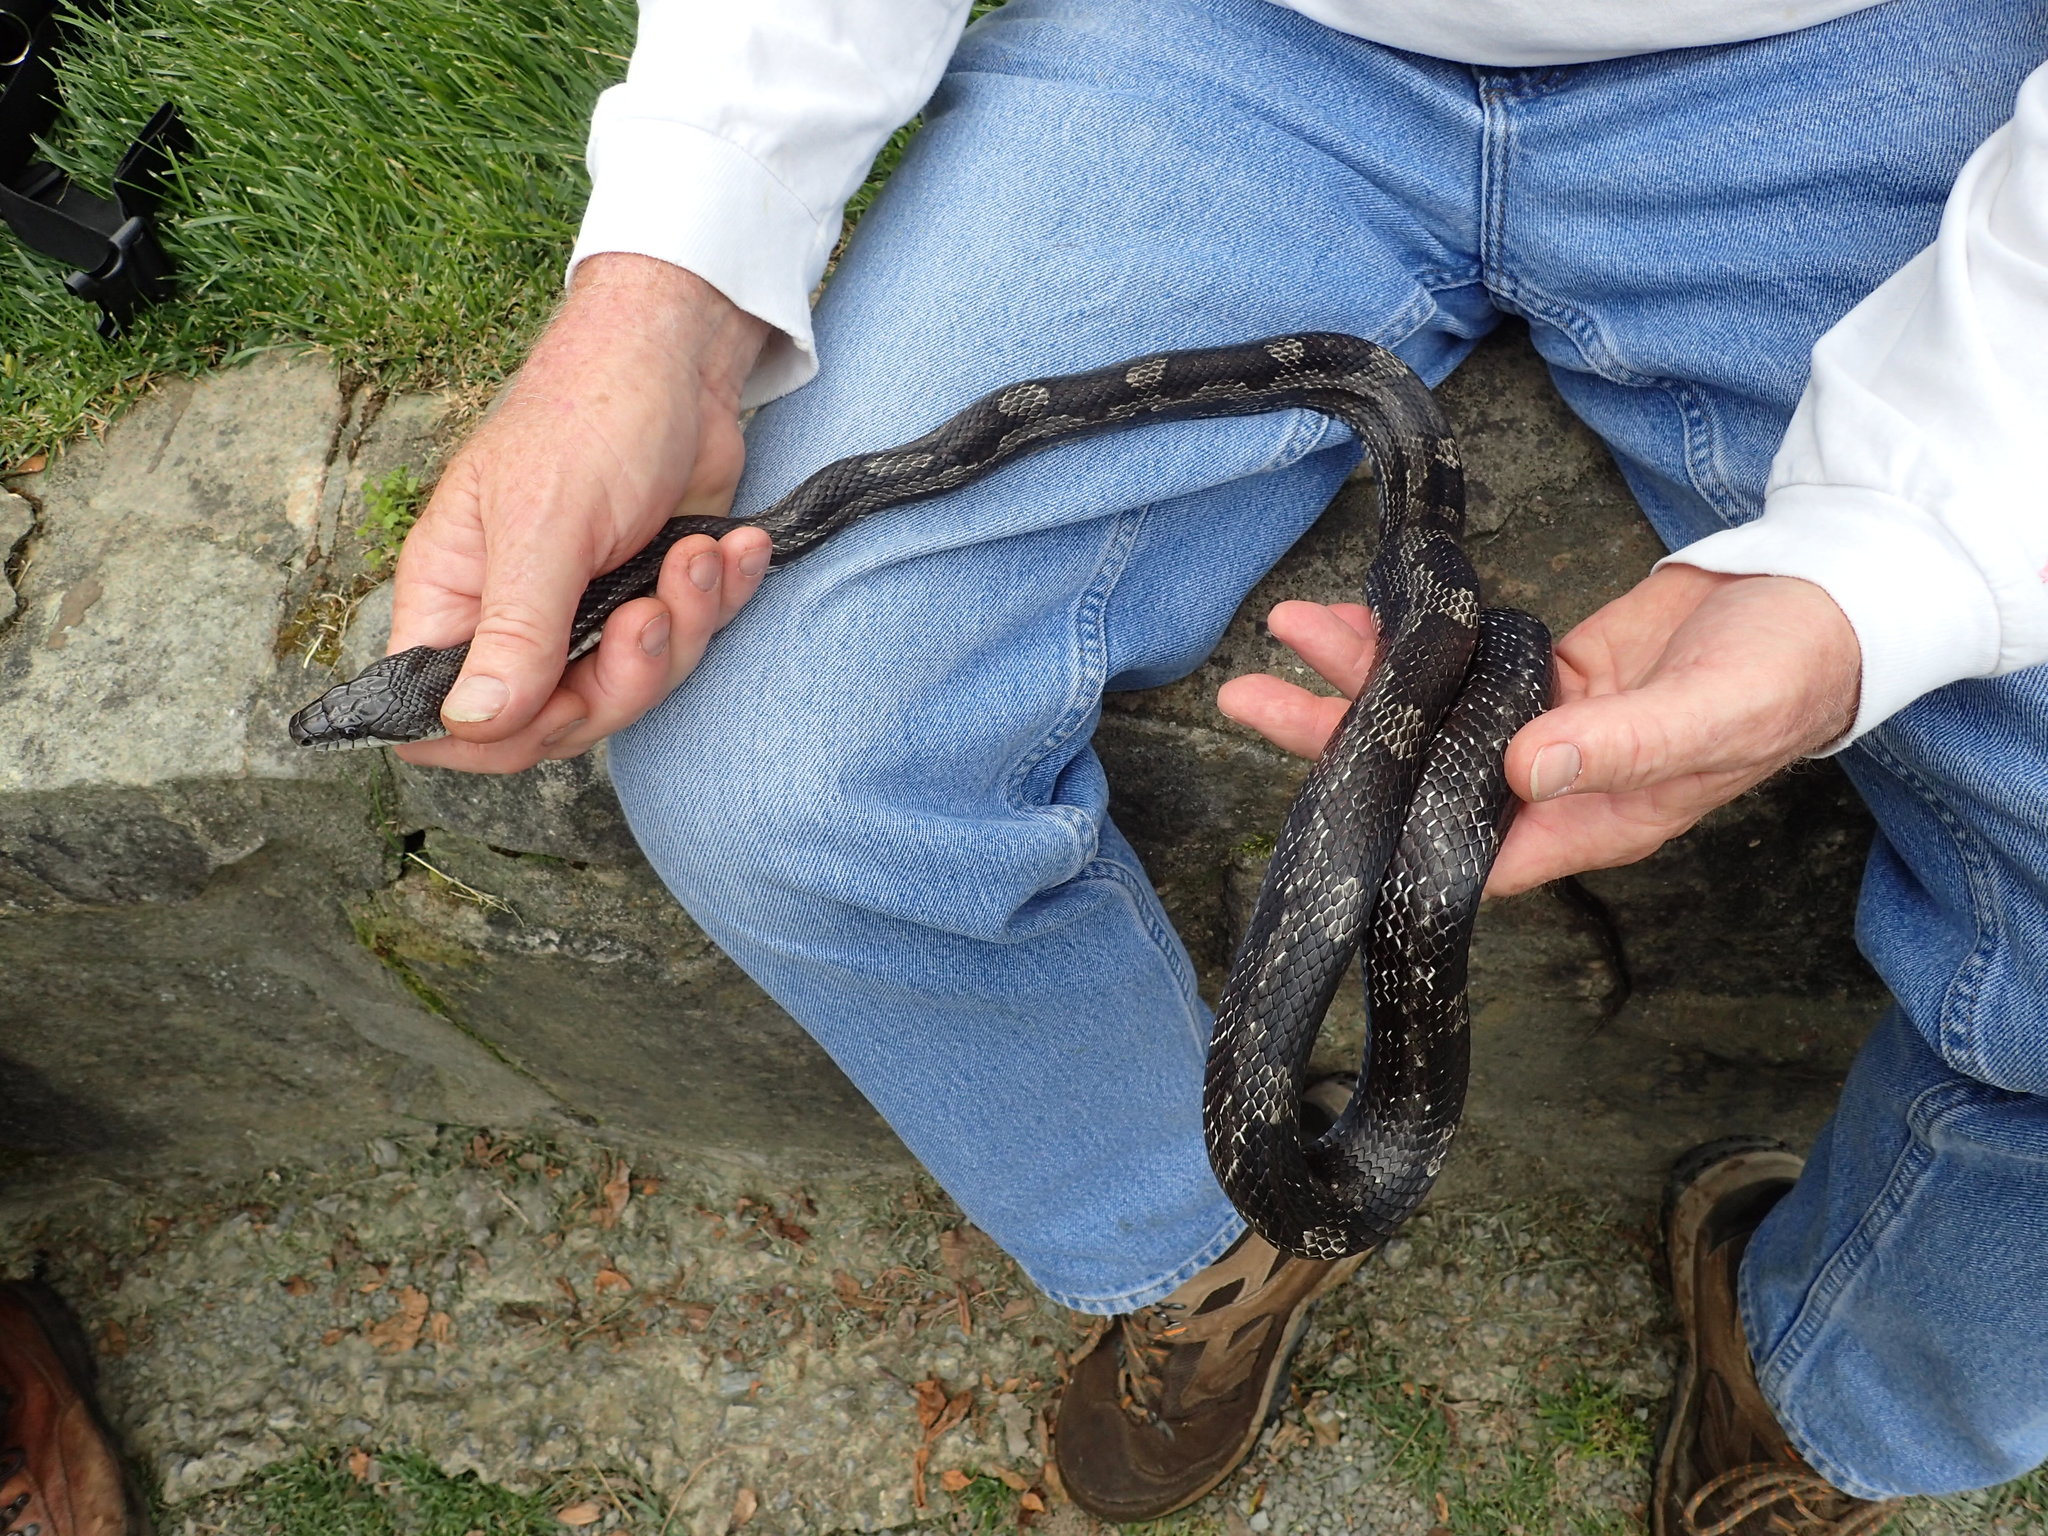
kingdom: Animalia
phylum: Chordata
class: Squamata
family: Colubridae
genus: Pantherophis
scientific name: Pantherophis spiloides
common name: Gray rat snake
